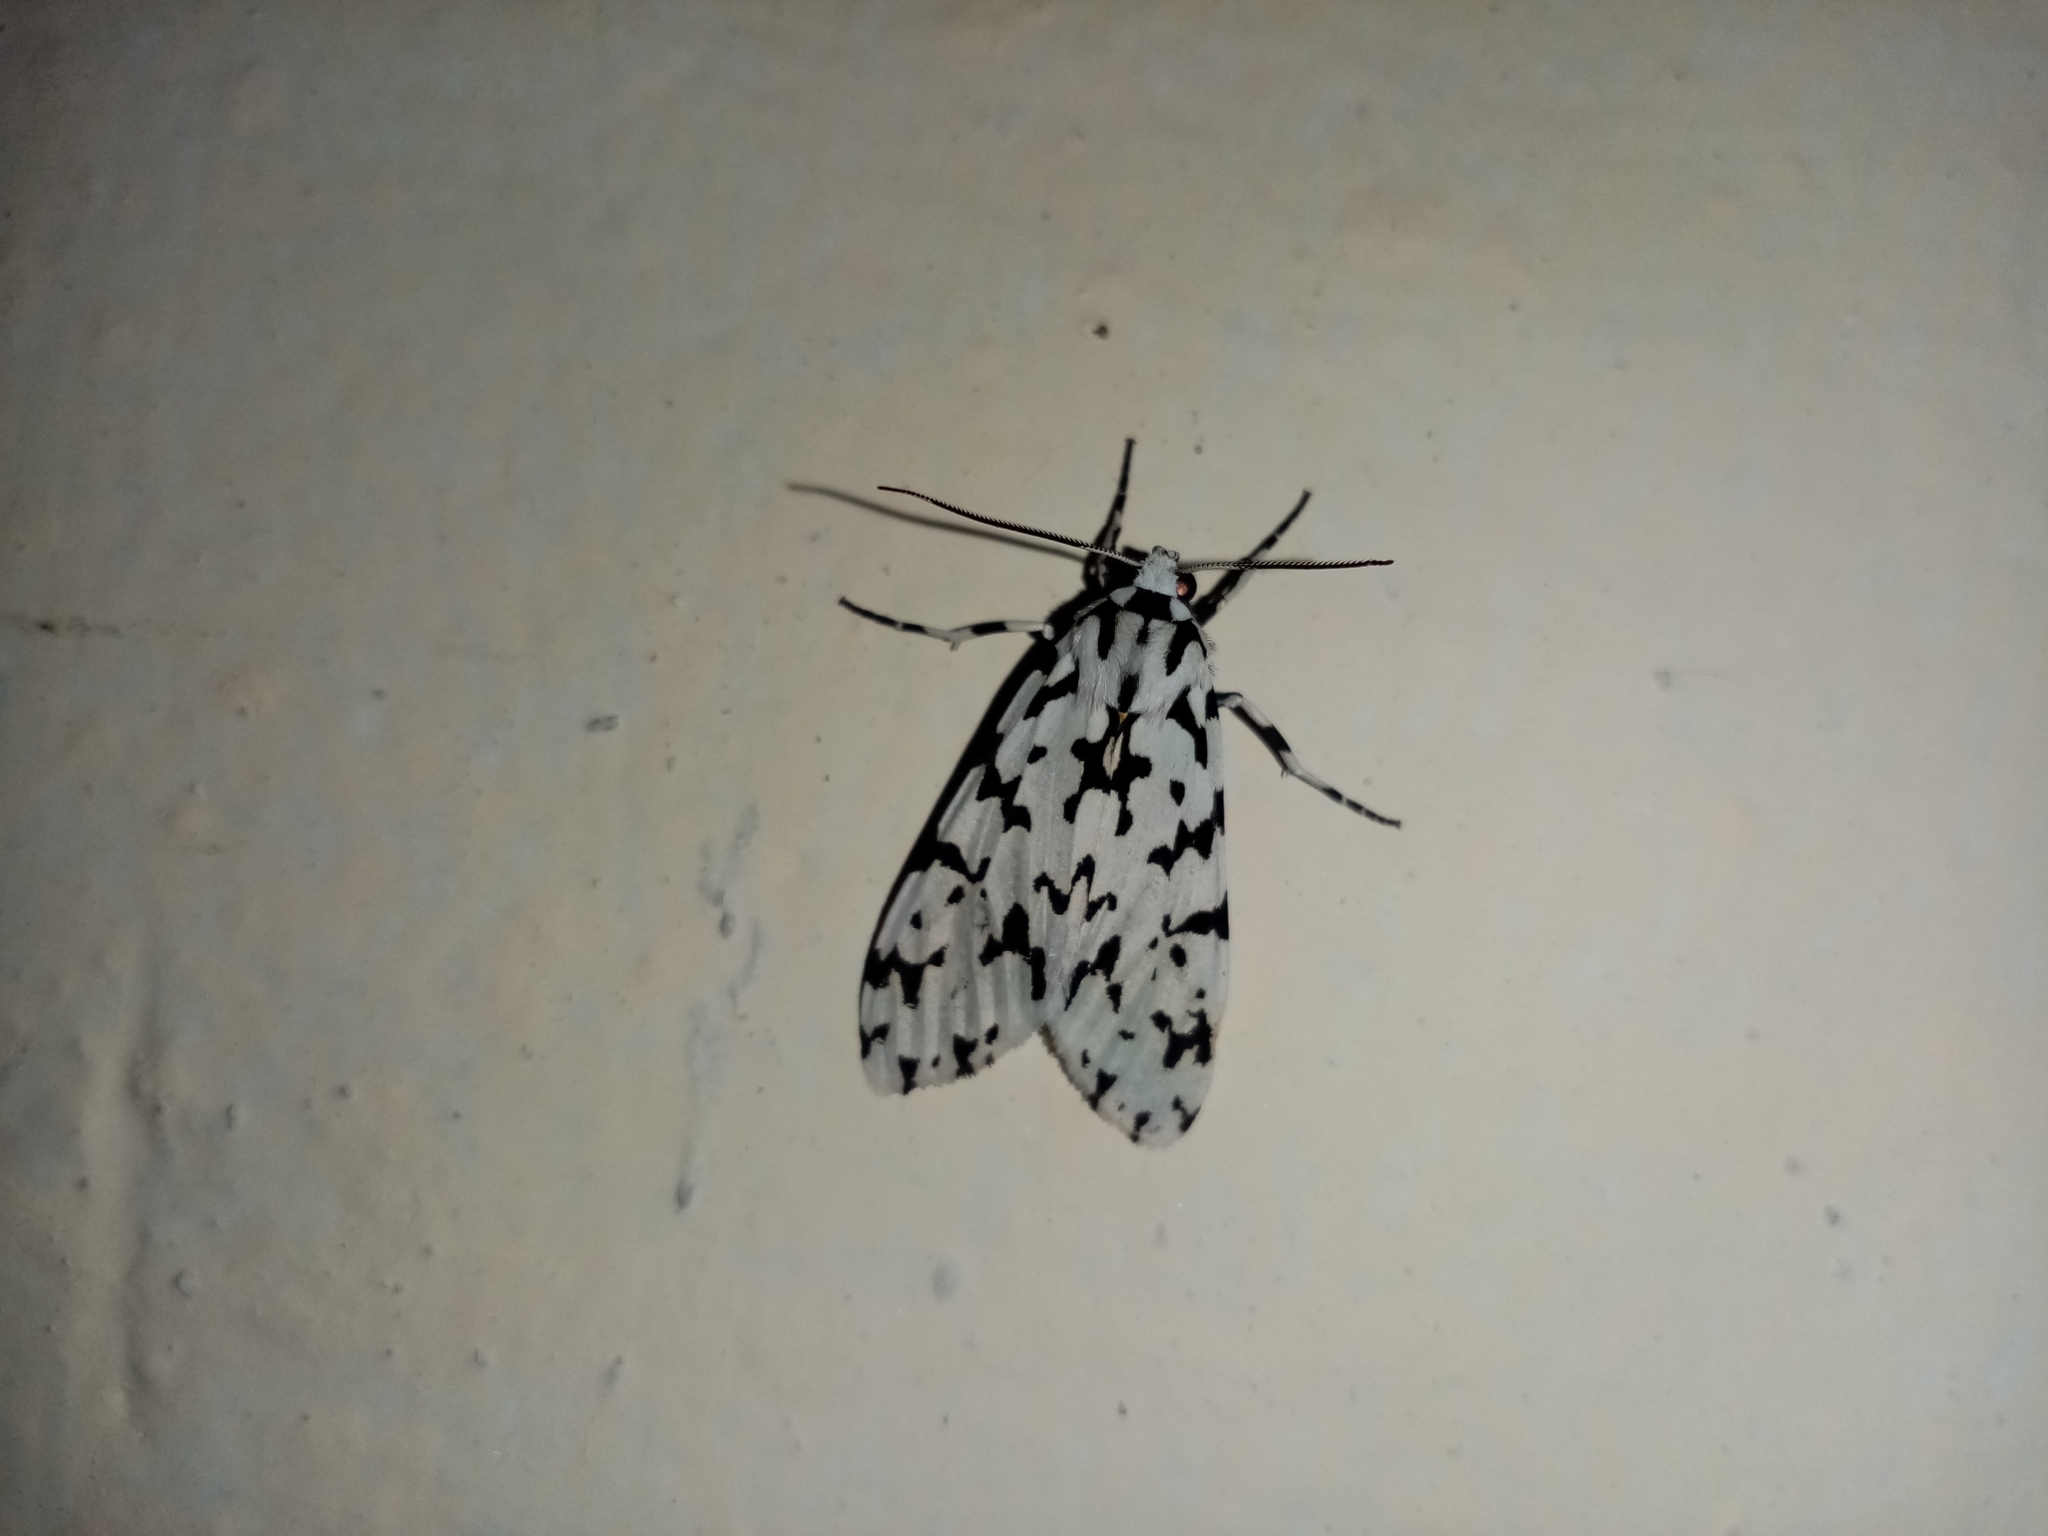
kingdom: Animalia
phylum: Arthropoda
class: Insecta
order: Lepidoptera
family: Erebidae
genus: Eucereon
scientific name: Eucereon tigrata
